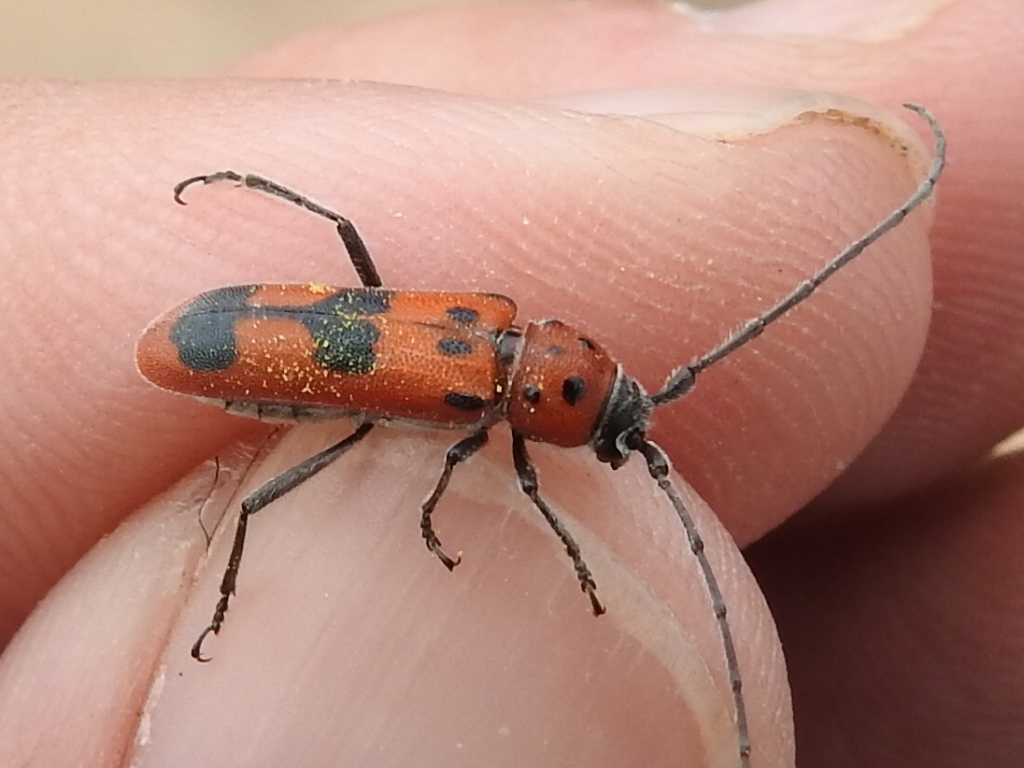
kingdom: Animalia
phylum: Arthropoda
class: Insecta
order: Coleoptera
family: Cerambycidae
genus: Tylosis
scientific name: Tylosis maculatus
